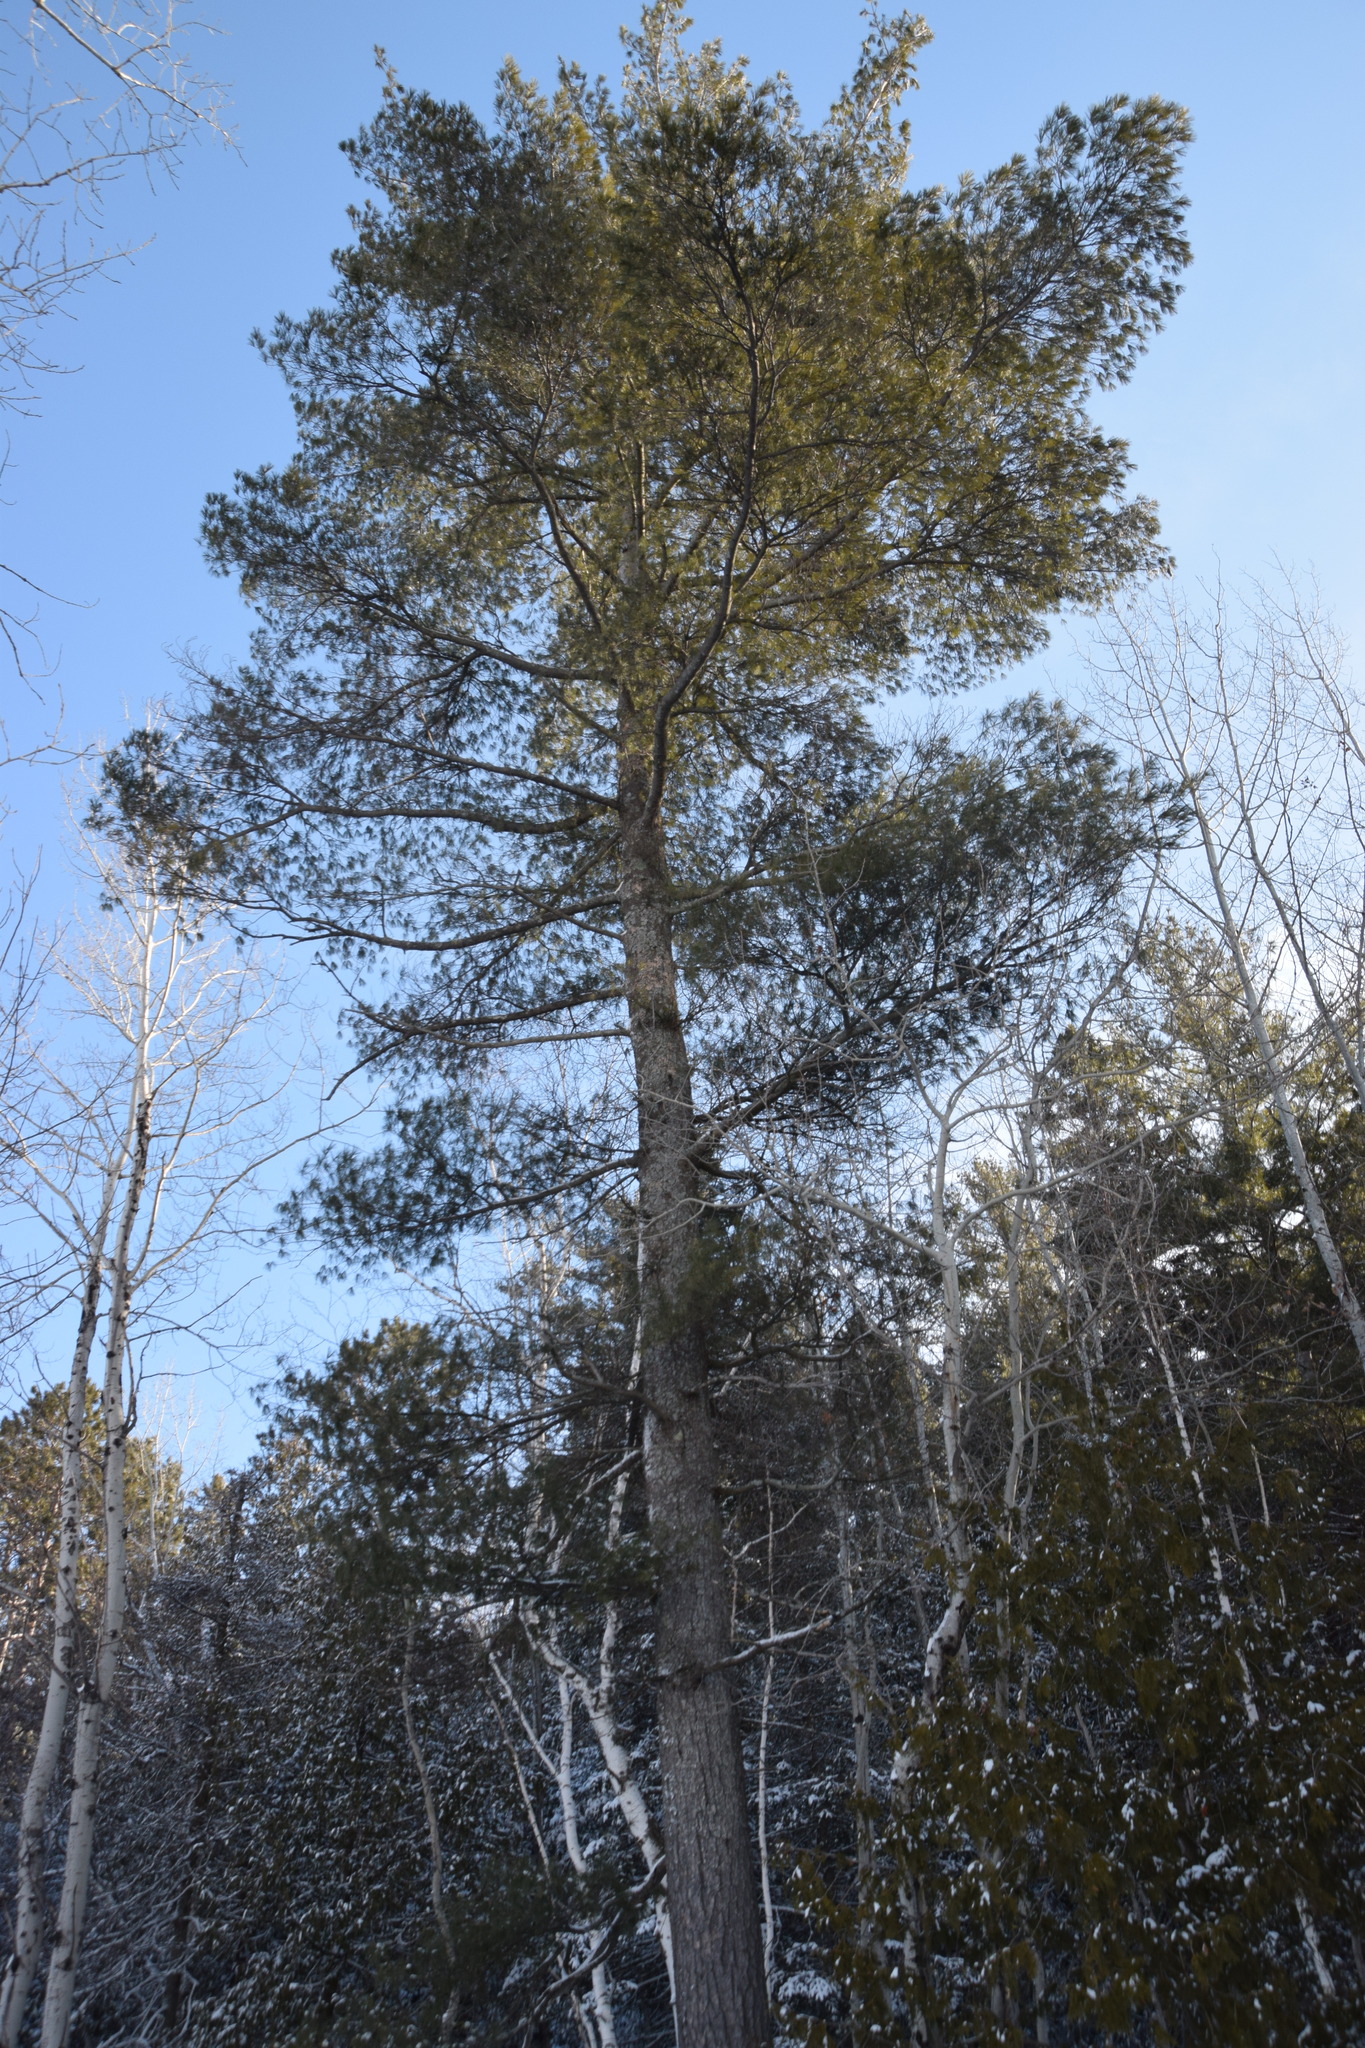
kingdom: Plantae
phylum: Tracheophyta
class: Pinopsida
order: Pinales
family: Pinaceae
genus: Pinus
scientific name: Pinus strobus
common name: Weymouth pine
